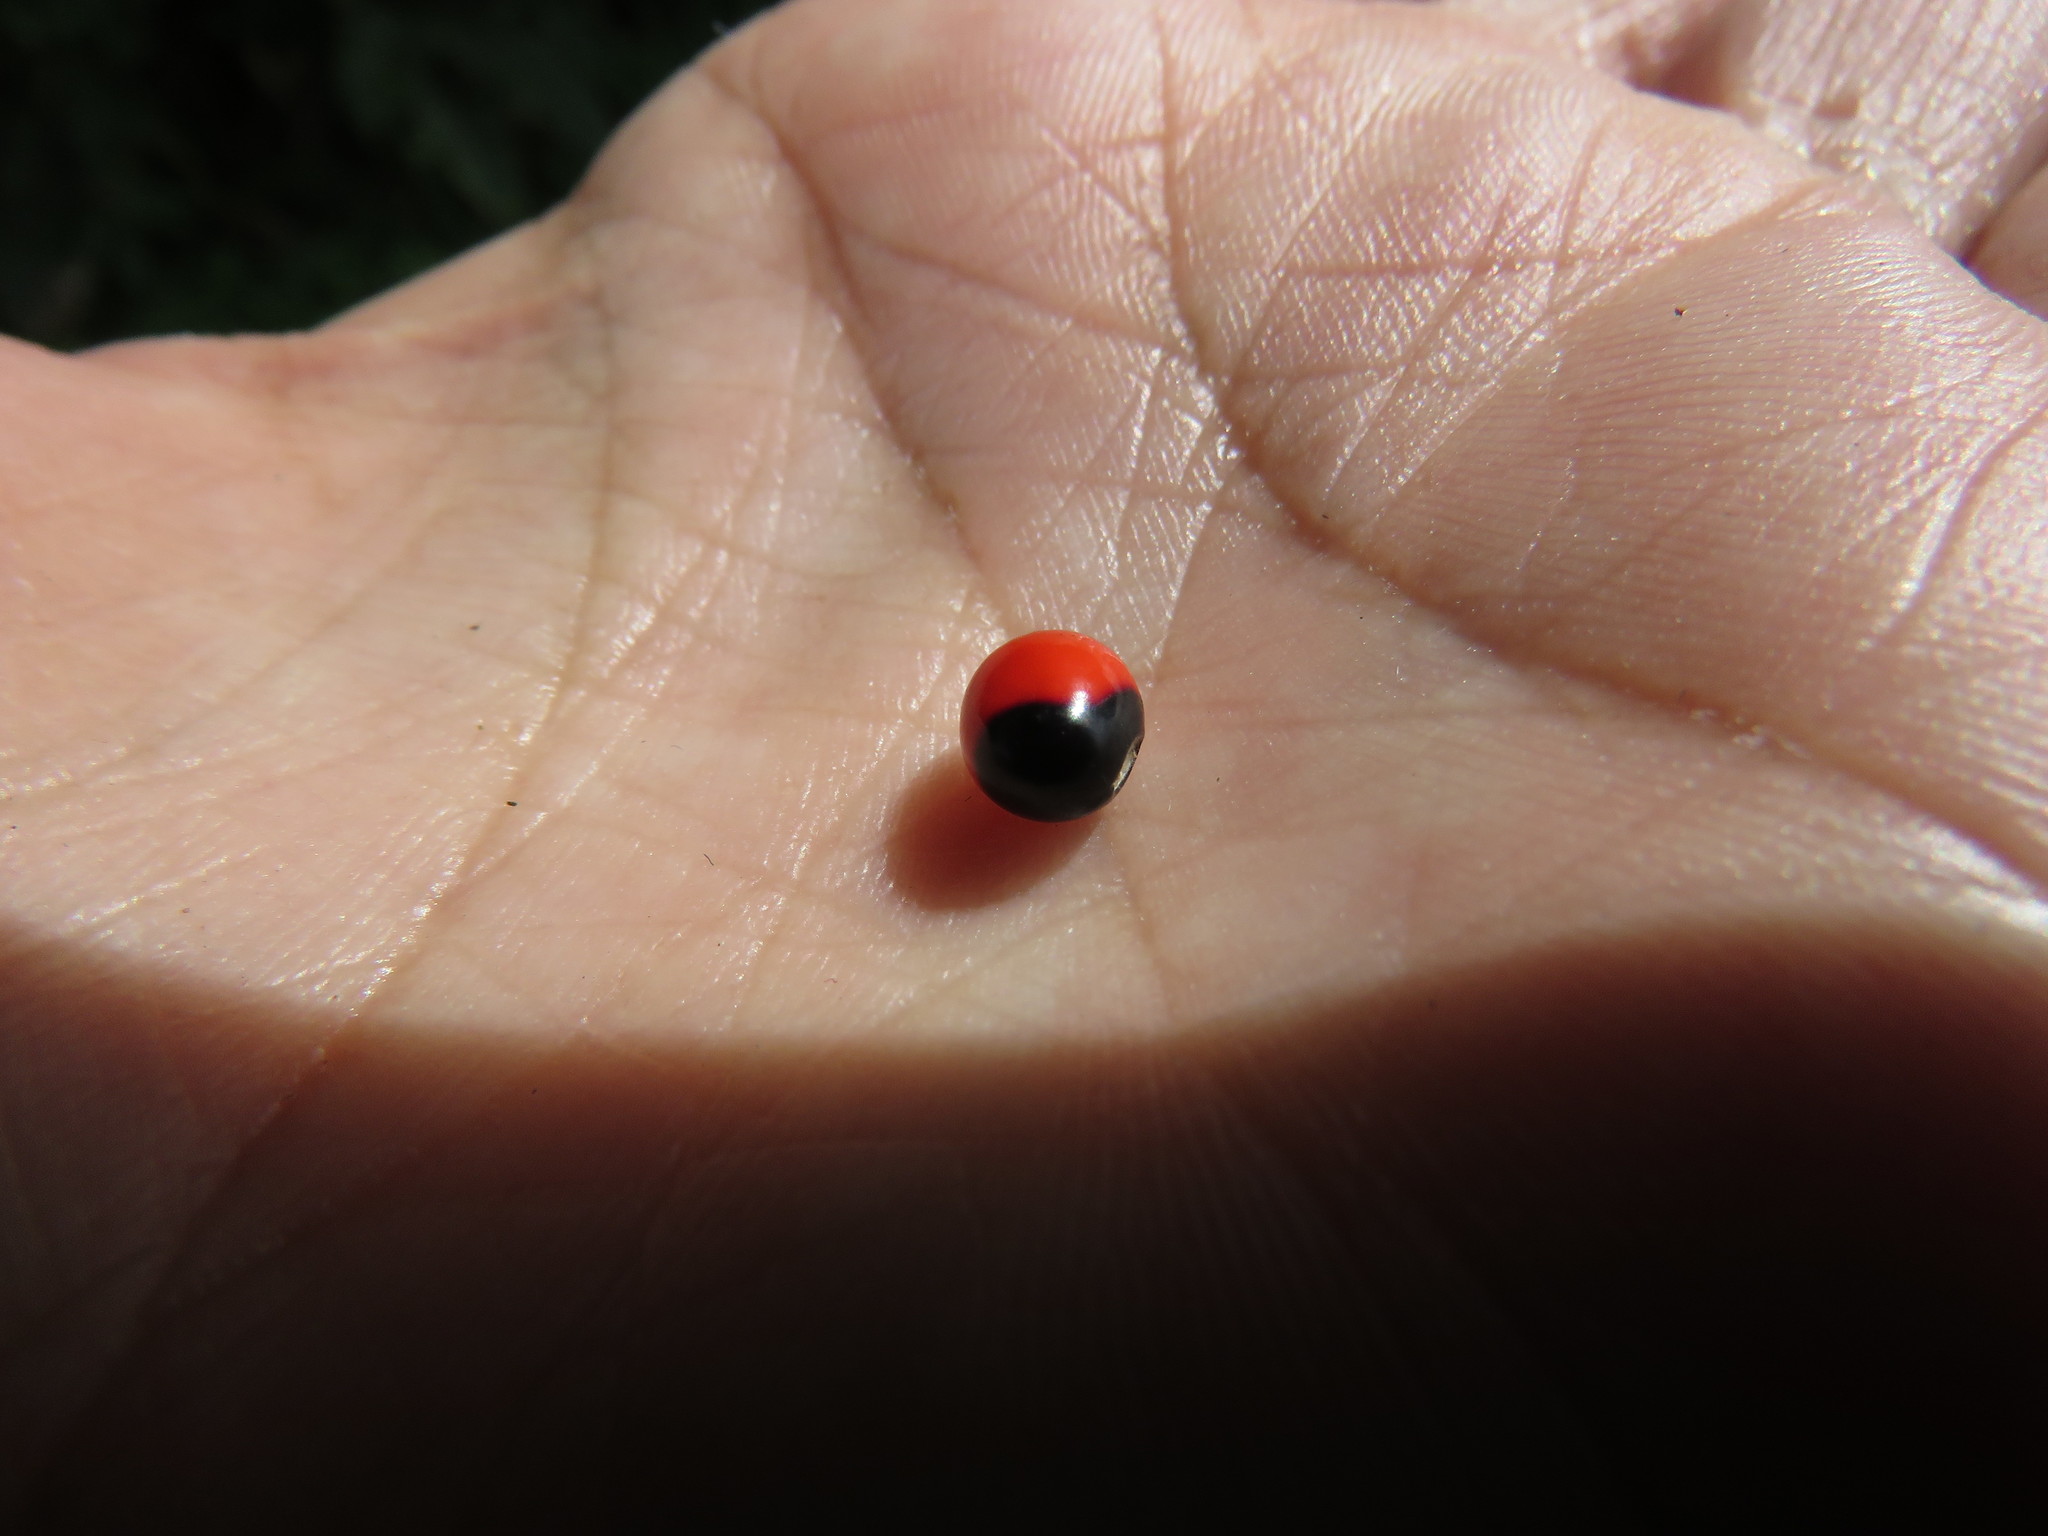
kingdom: Plantae
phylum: Tracheophyta
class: Magnoliopsida
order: Fabales
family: Fabaceae
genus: Abrus
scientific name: Abrus precatorius
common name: Rosarypea
